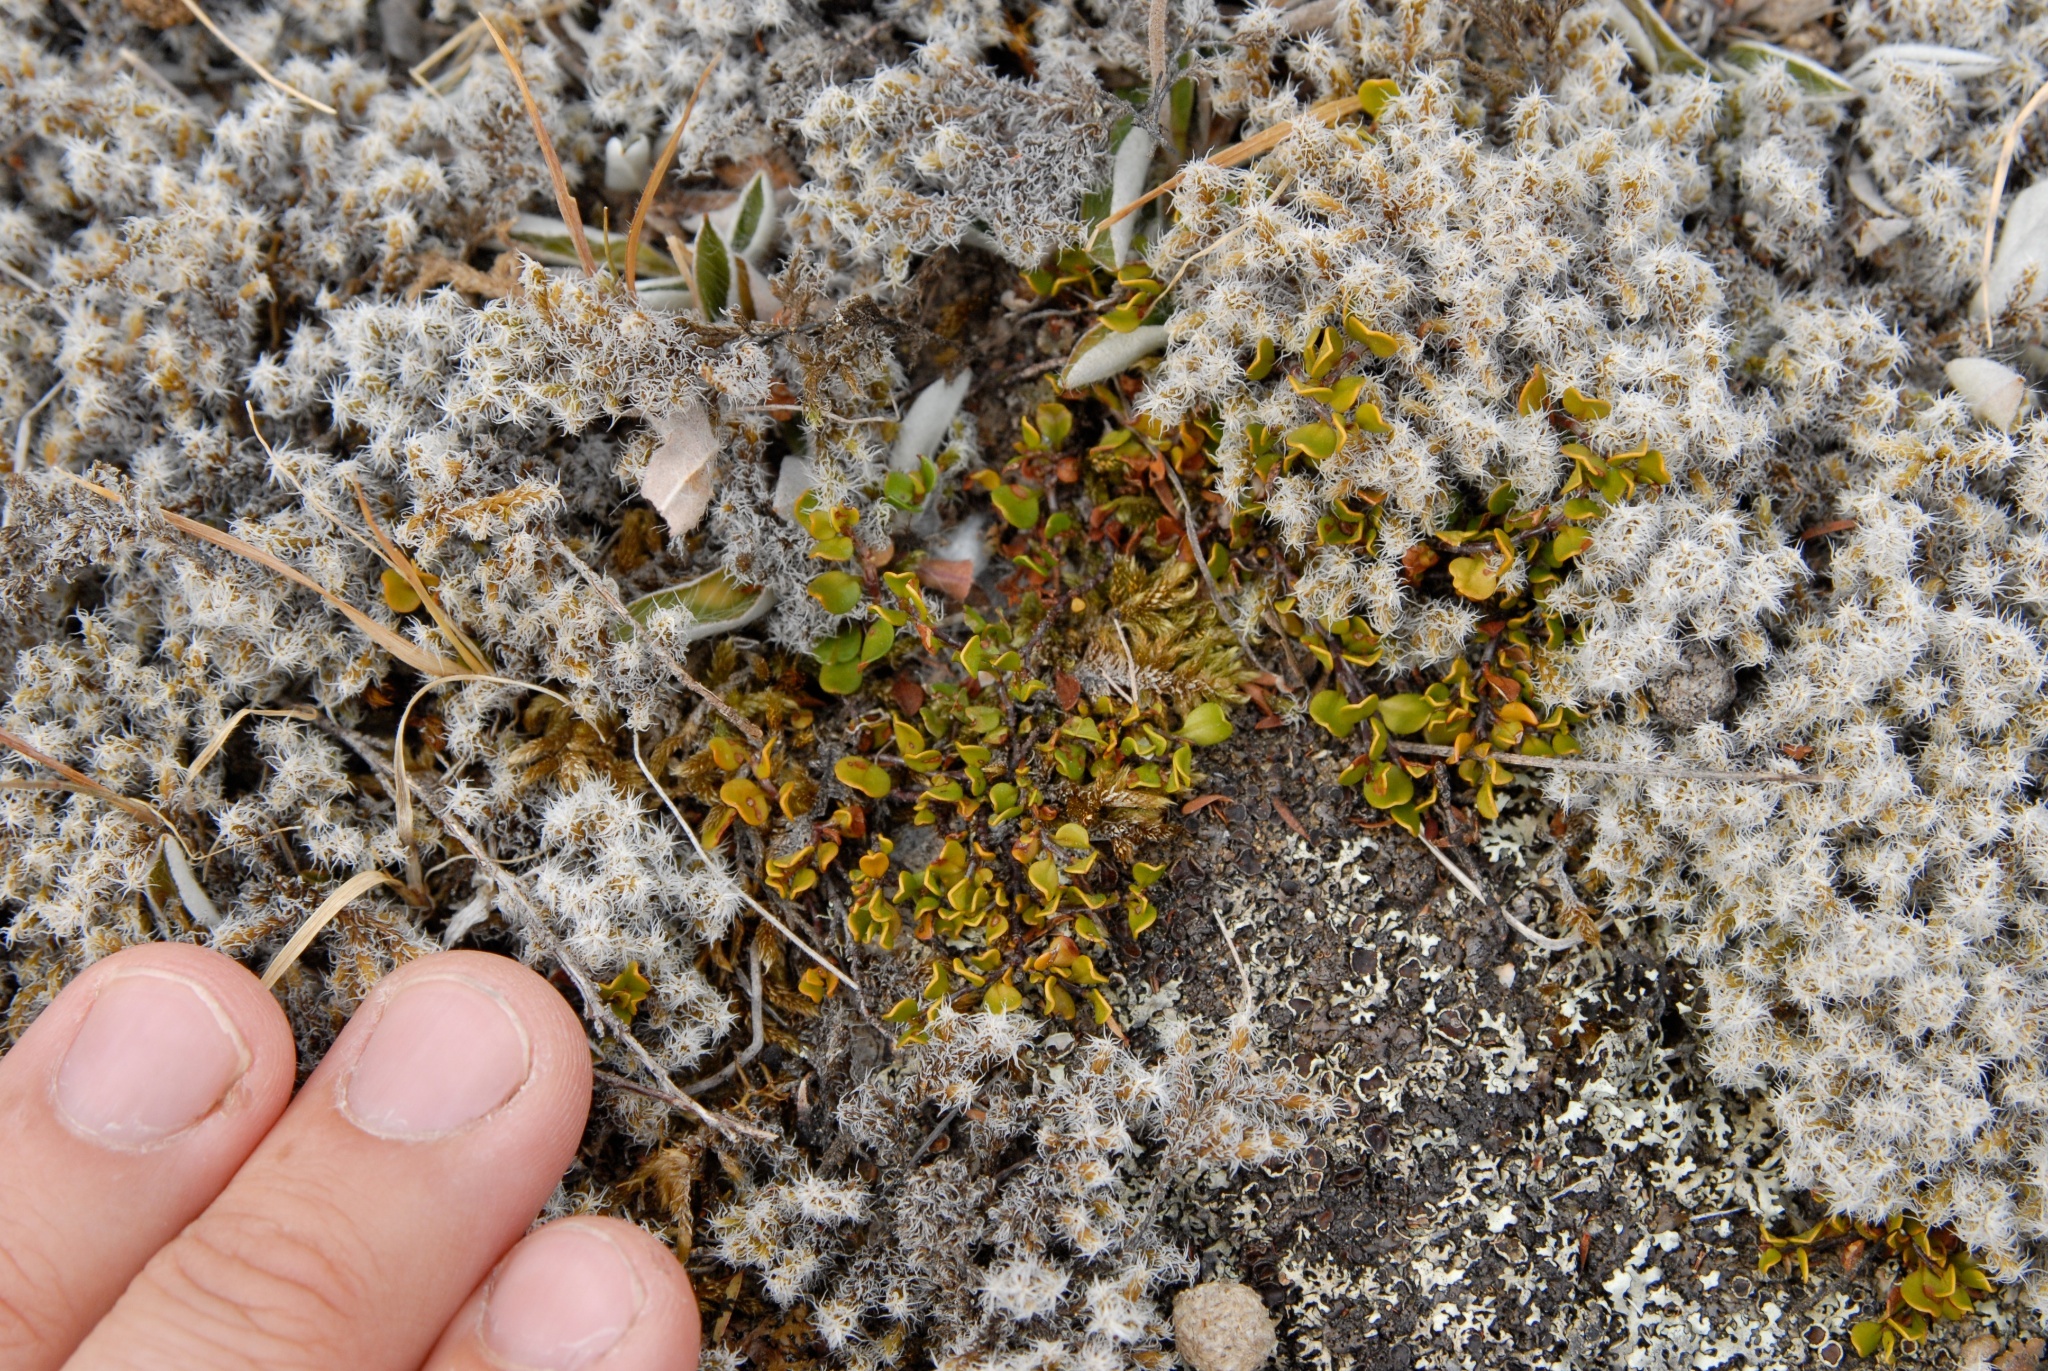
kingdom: Plantae
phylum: Tracheophyta
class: Magnoliopsida
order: Caryophyllales
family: Polygonaceae
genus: Muehlenbeckia
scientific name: Muehlenbeckia axillaris
